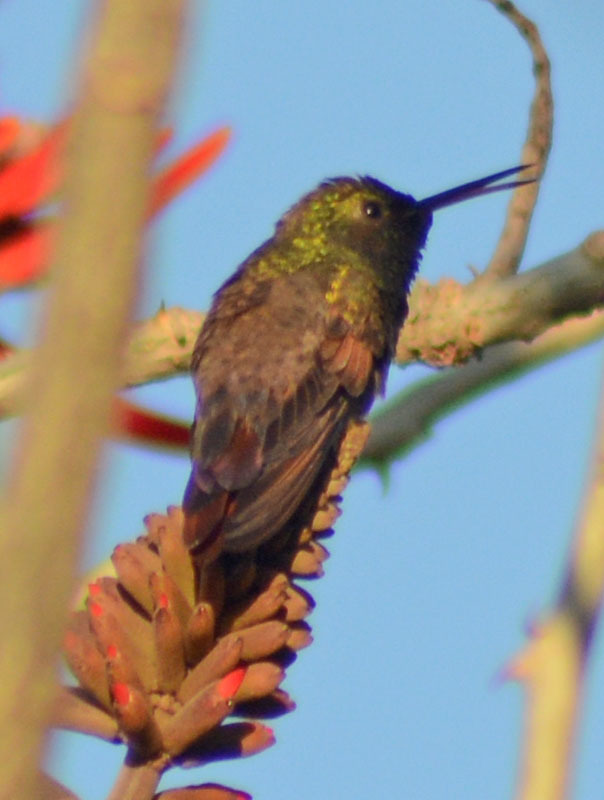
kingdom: Animalia
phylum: Chordata
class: Aves
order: Apodiformes
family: Trochilidae
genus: Saucerottia
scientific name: Saucerottia beryllina
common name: Berylline hummingbird
